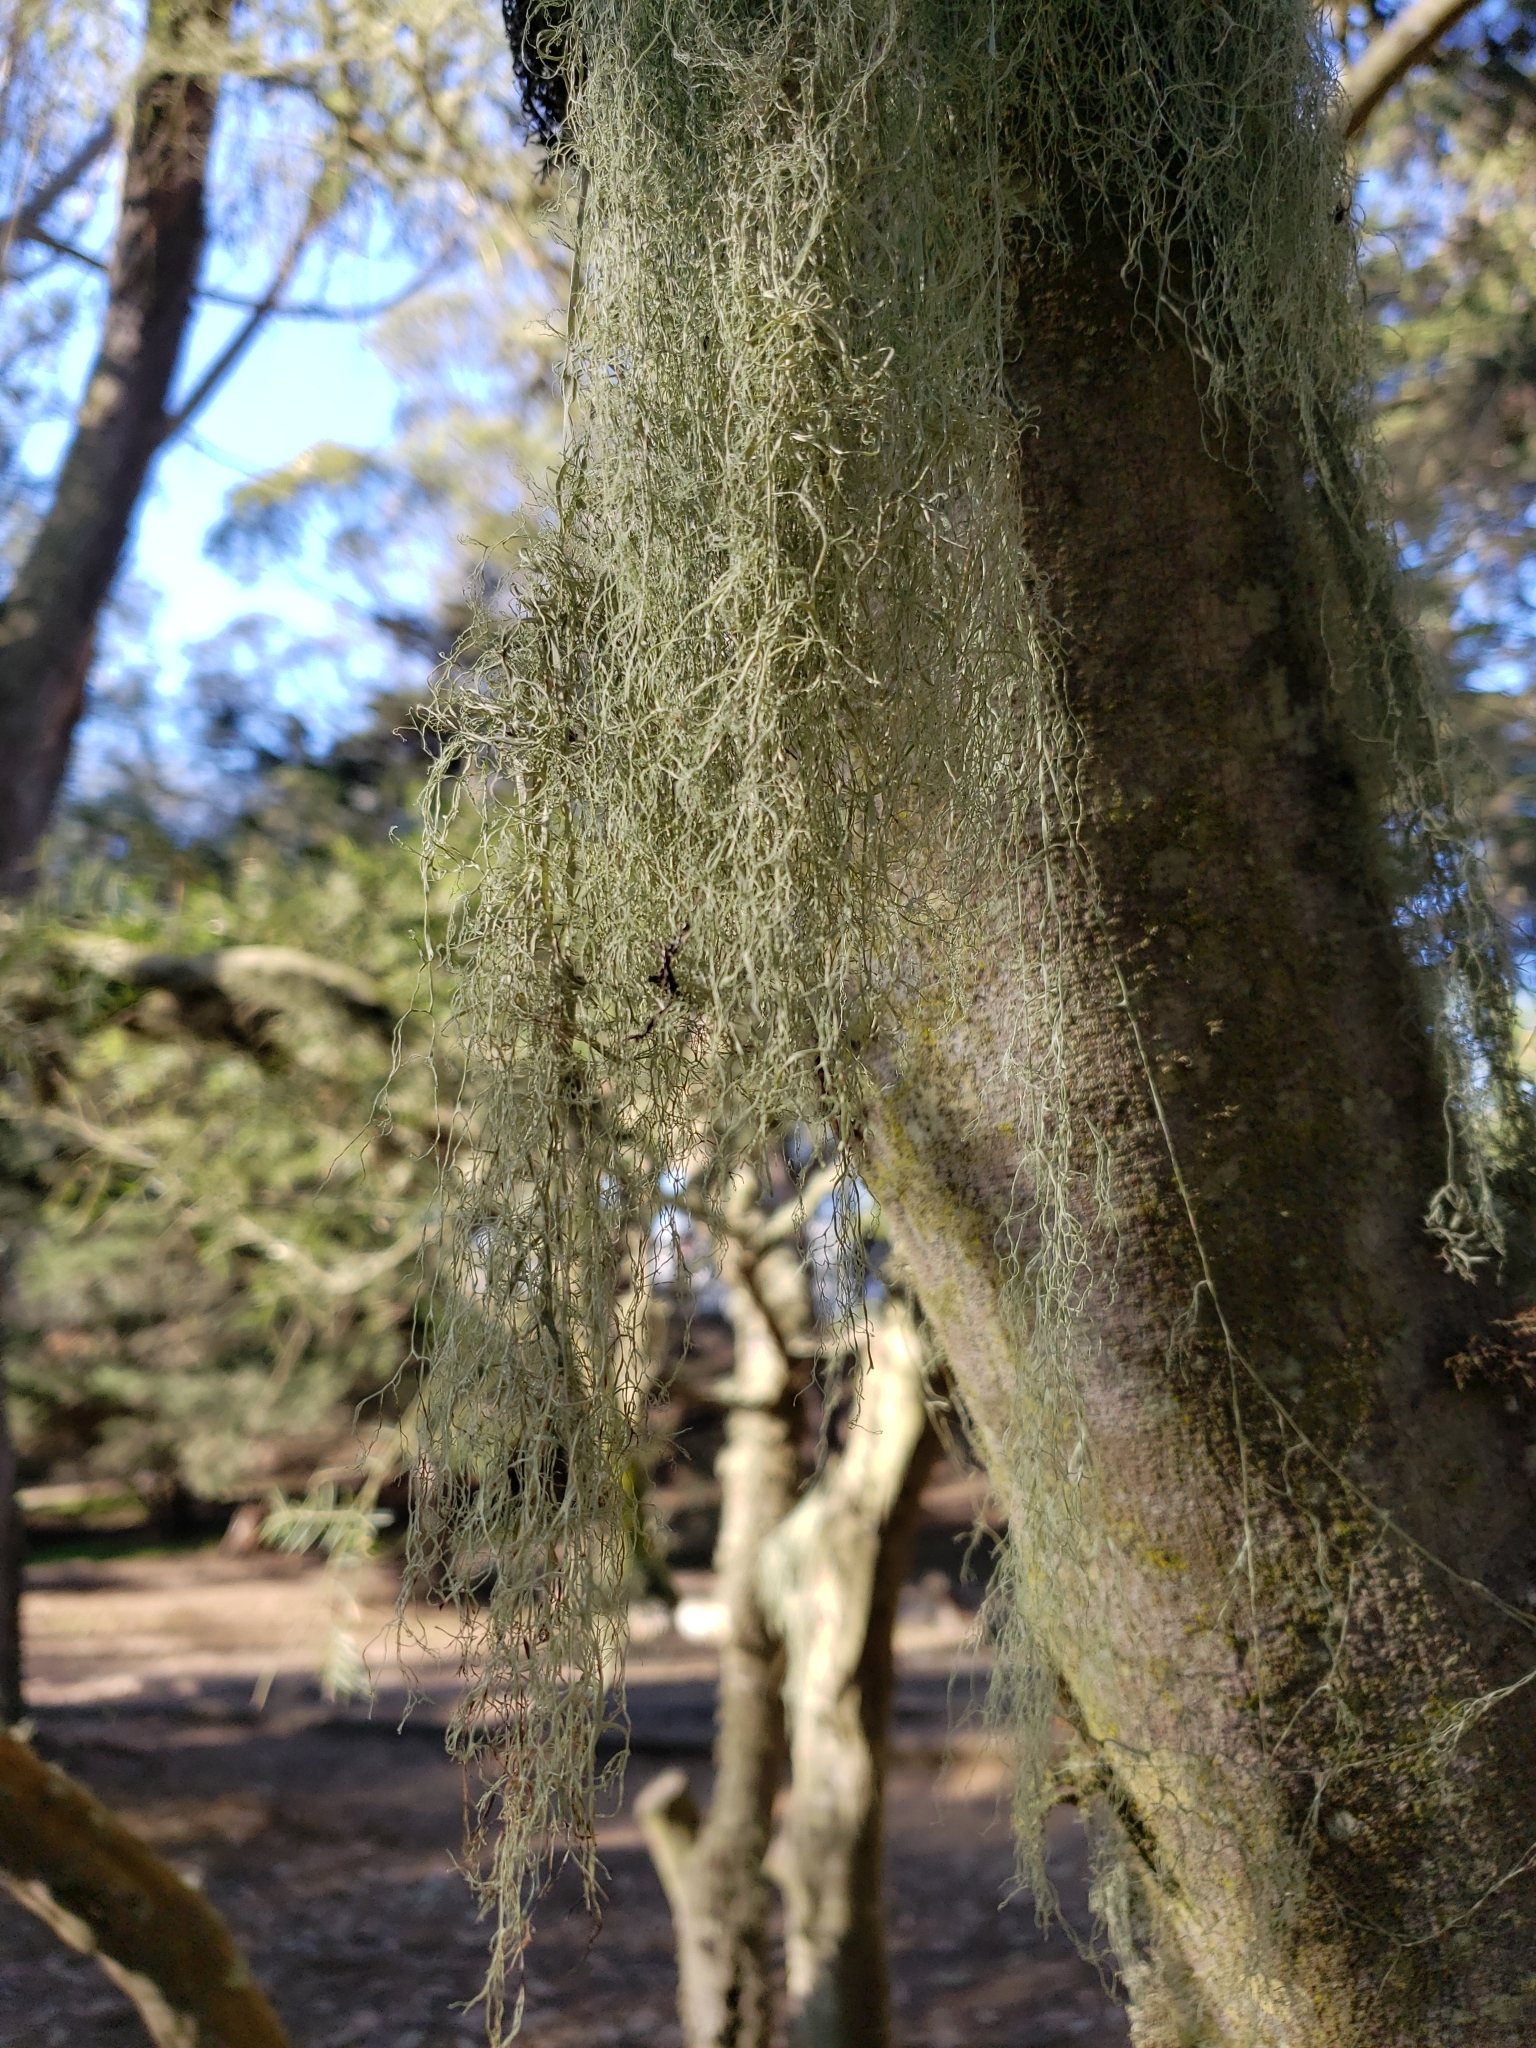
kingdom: Fungi
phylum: Ascomycota
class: Lecanoromycetes
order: Lecanorales
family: Ramalinaceae
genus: Ramalina
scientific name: Ramalina menziesii
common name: Lace lichen
